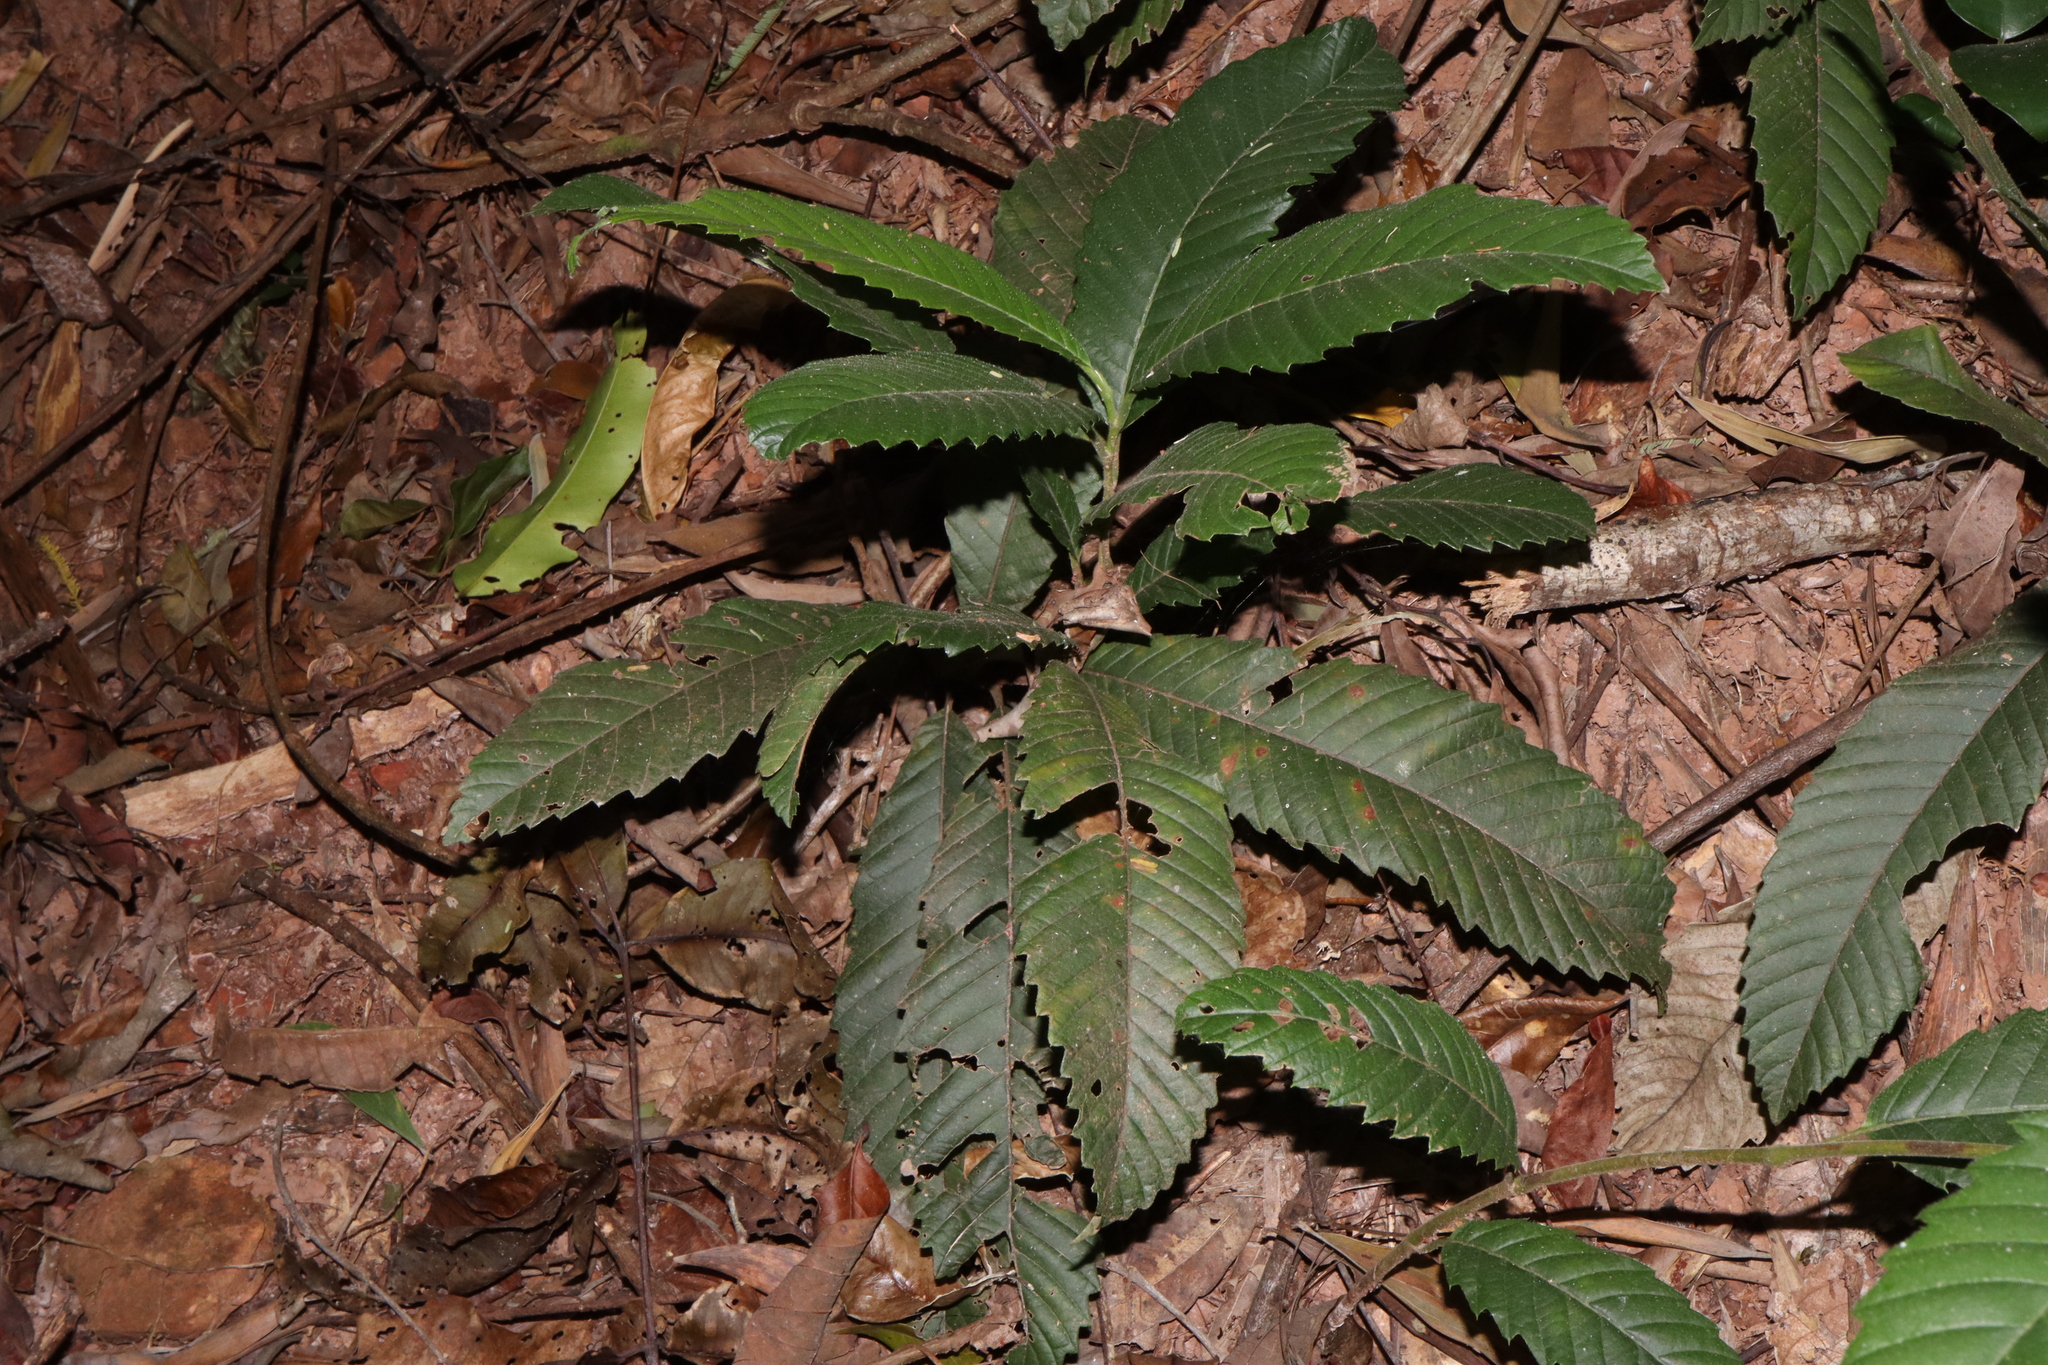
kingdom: Plantae
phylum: Tracheophyta
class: Magnoliopsida
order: Dilleniales
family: Dilleniaceae
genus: Tetracera
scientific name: Tetracera nordtiana
